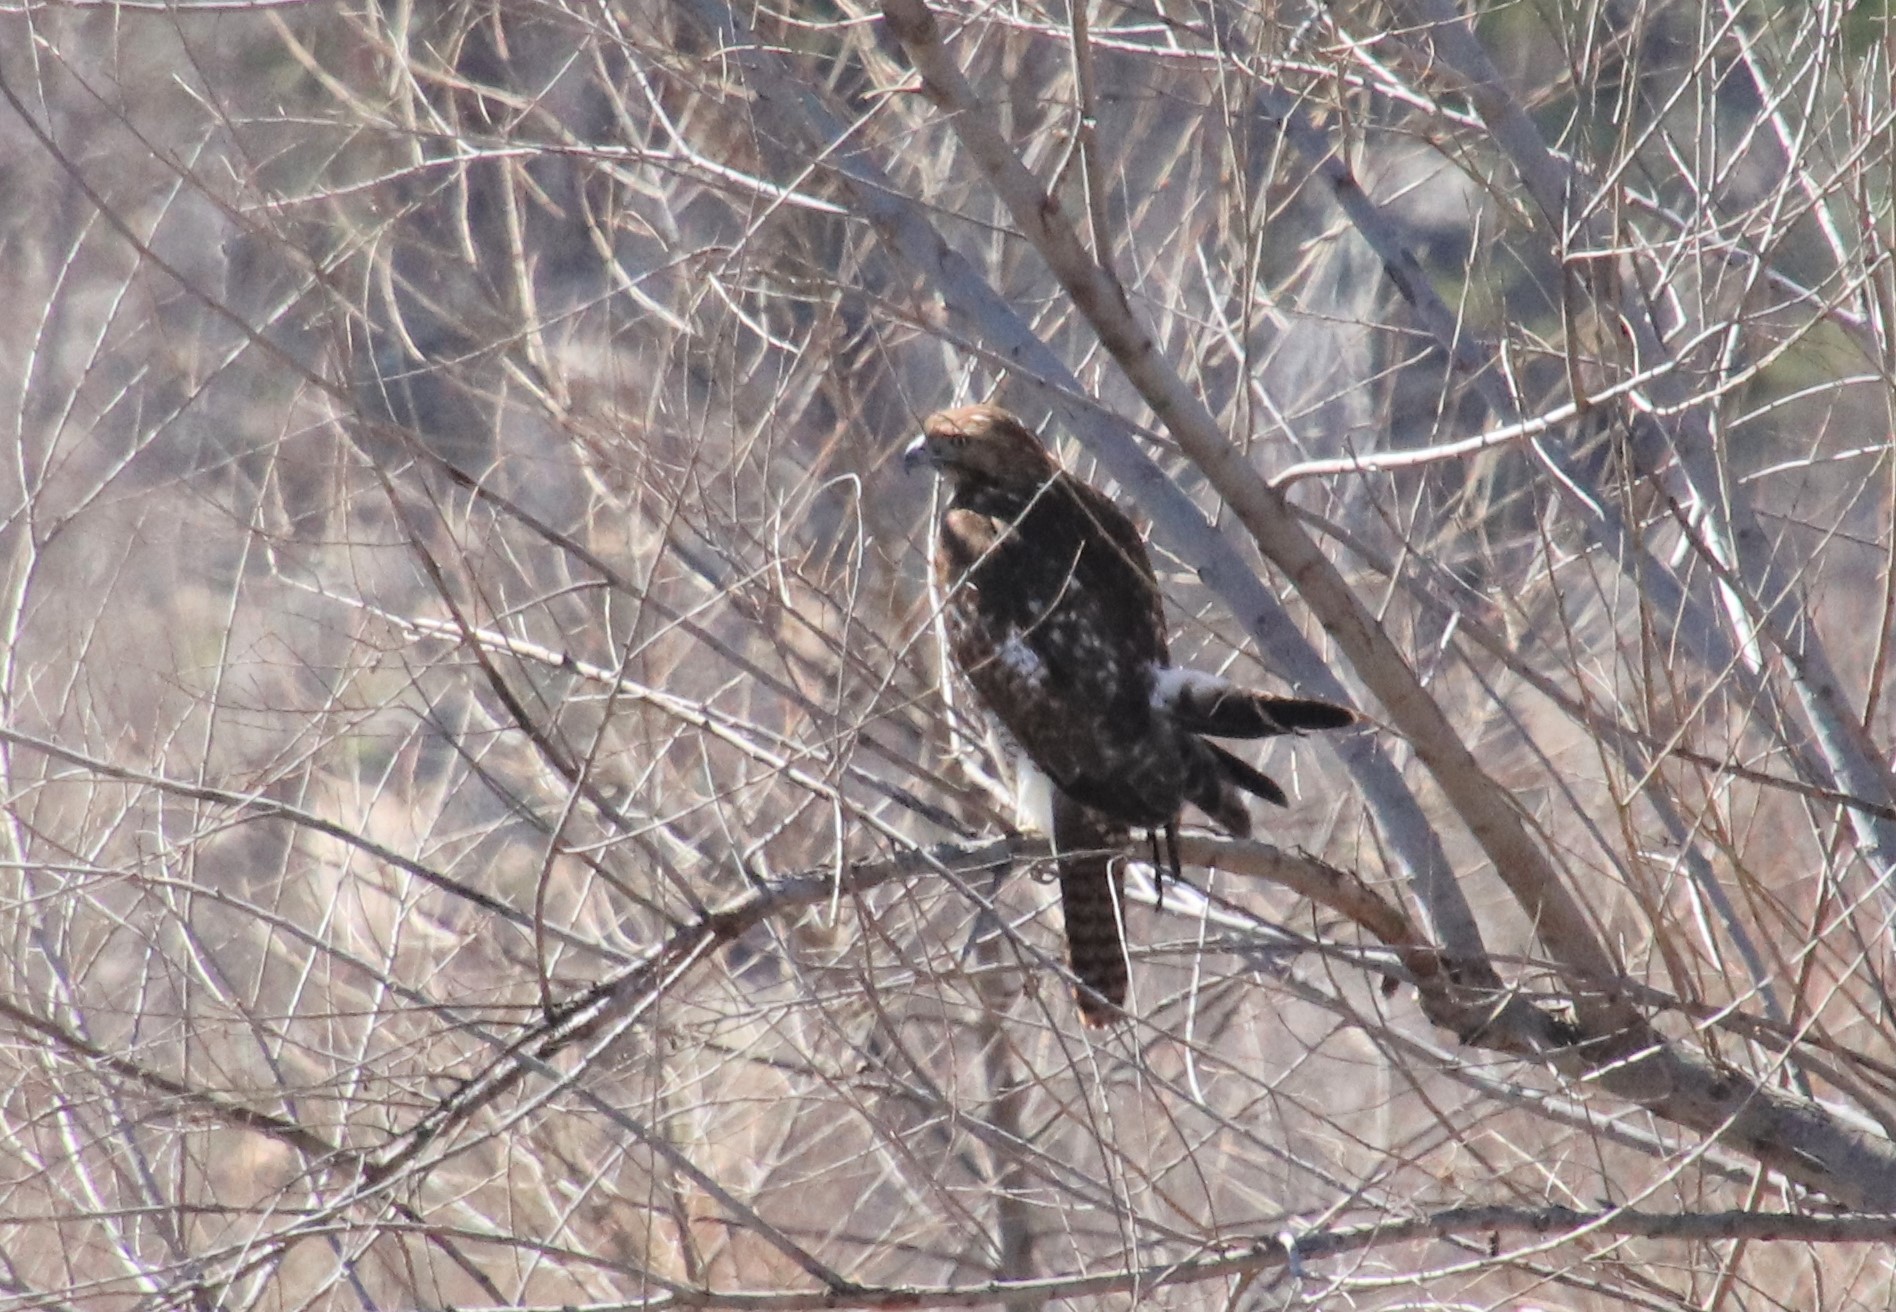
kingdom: Animalia
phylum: Chordata
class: Aves
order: Accipitriformes
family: Accipitridae
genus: Buteo
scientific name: Buteo jamaicensis
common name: Red-tailed hawk
